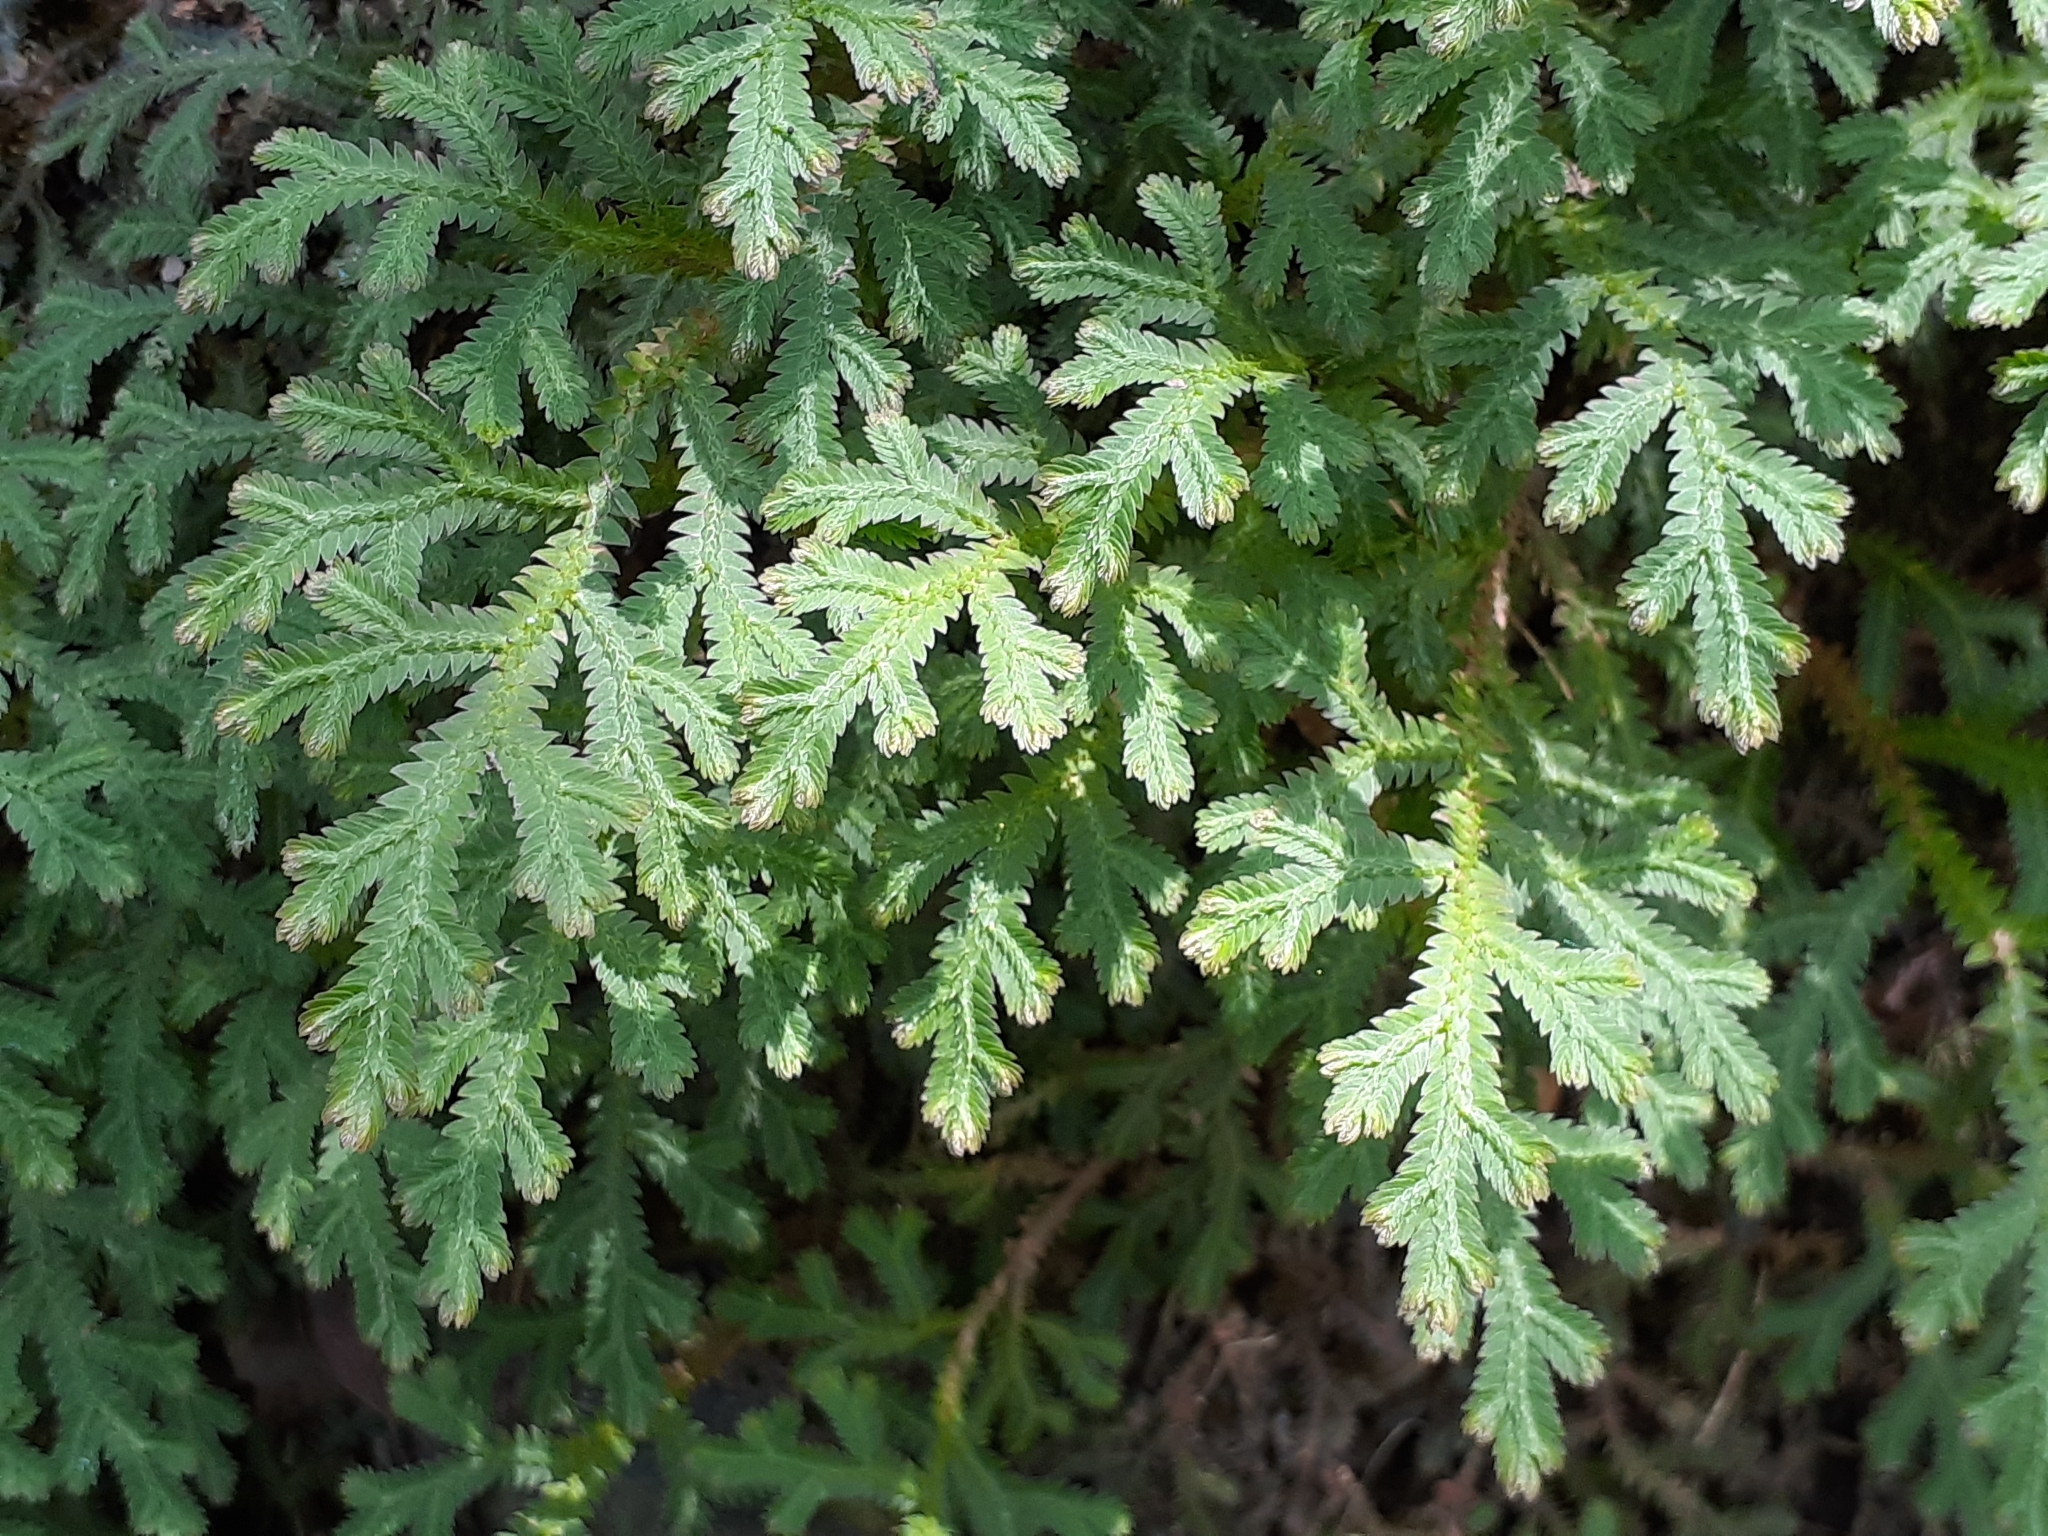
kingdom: Plantae
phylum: Tracheophyta
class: Lycopodiopsida
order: Selaginellales
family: Selaginellaceae
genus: Selaginella
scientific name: Selaginella repanda
